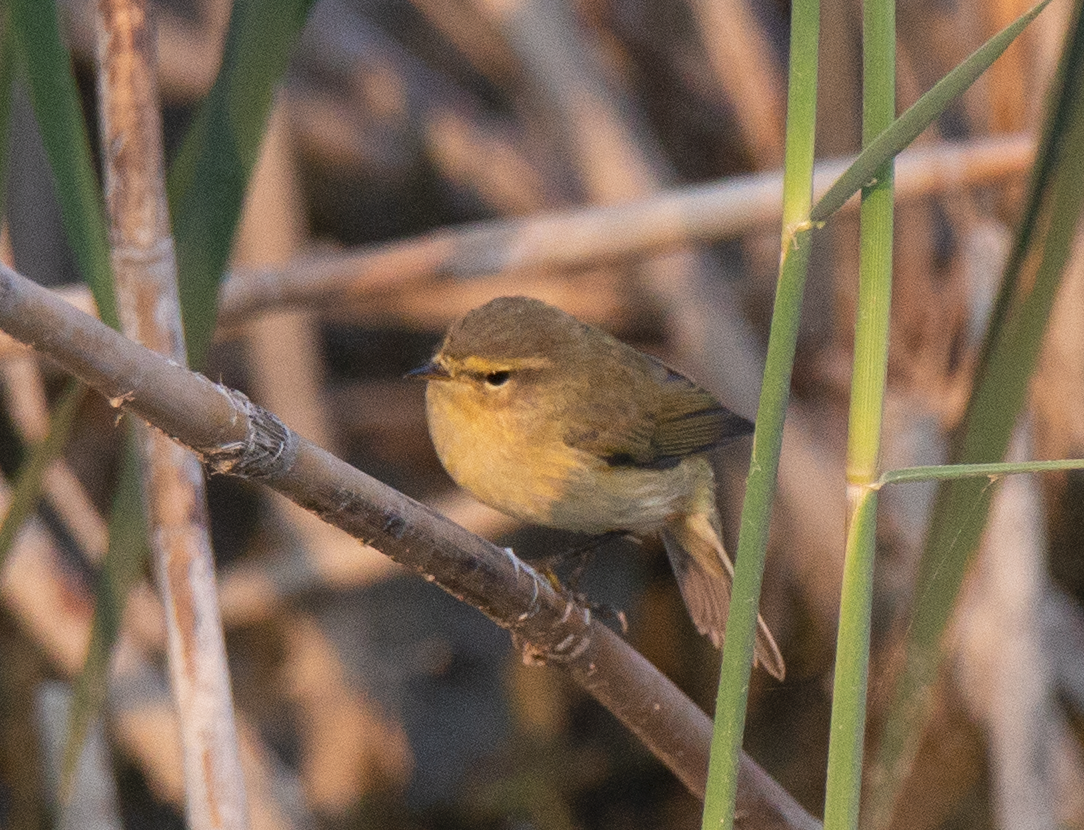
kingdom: Animalia
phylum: Chordata
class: Aves
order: Passeriformes
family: Phylloscopidae
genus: Phylloscopus
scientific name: Phylloscopus collybita
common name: Common chiffchaff
